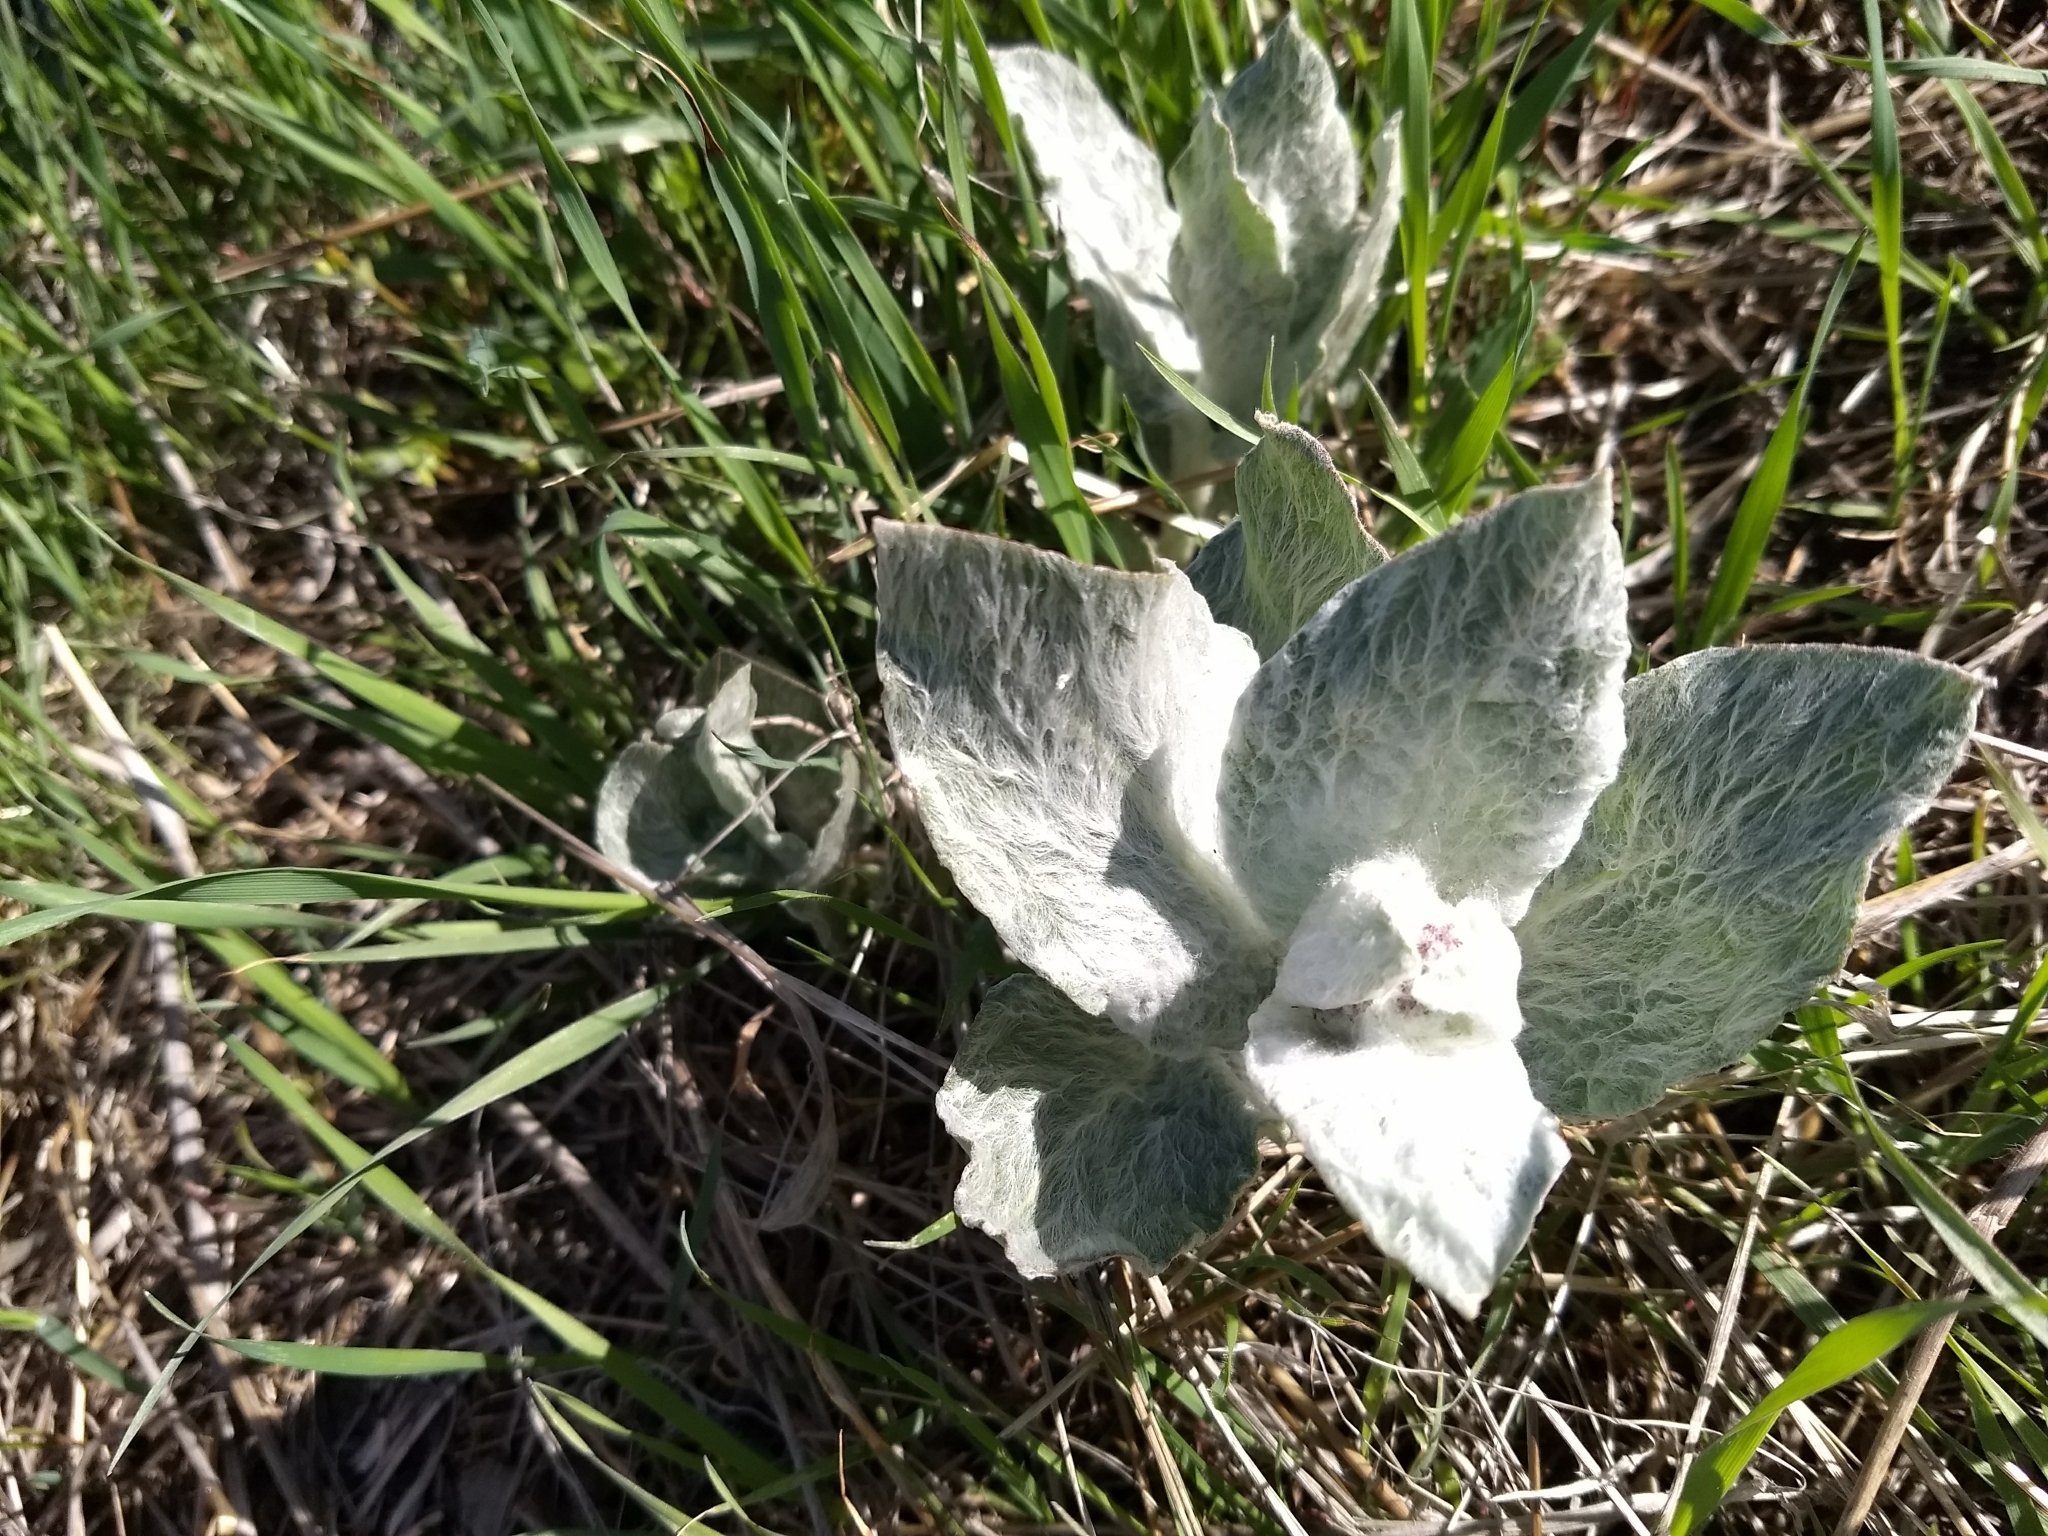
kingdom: Plantae
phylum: Tracheophyta
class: Magnoliopsida
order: Gentianales
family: Apocynaceae
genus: Asclepias
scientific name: Asclepias californica
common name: California milkweed
